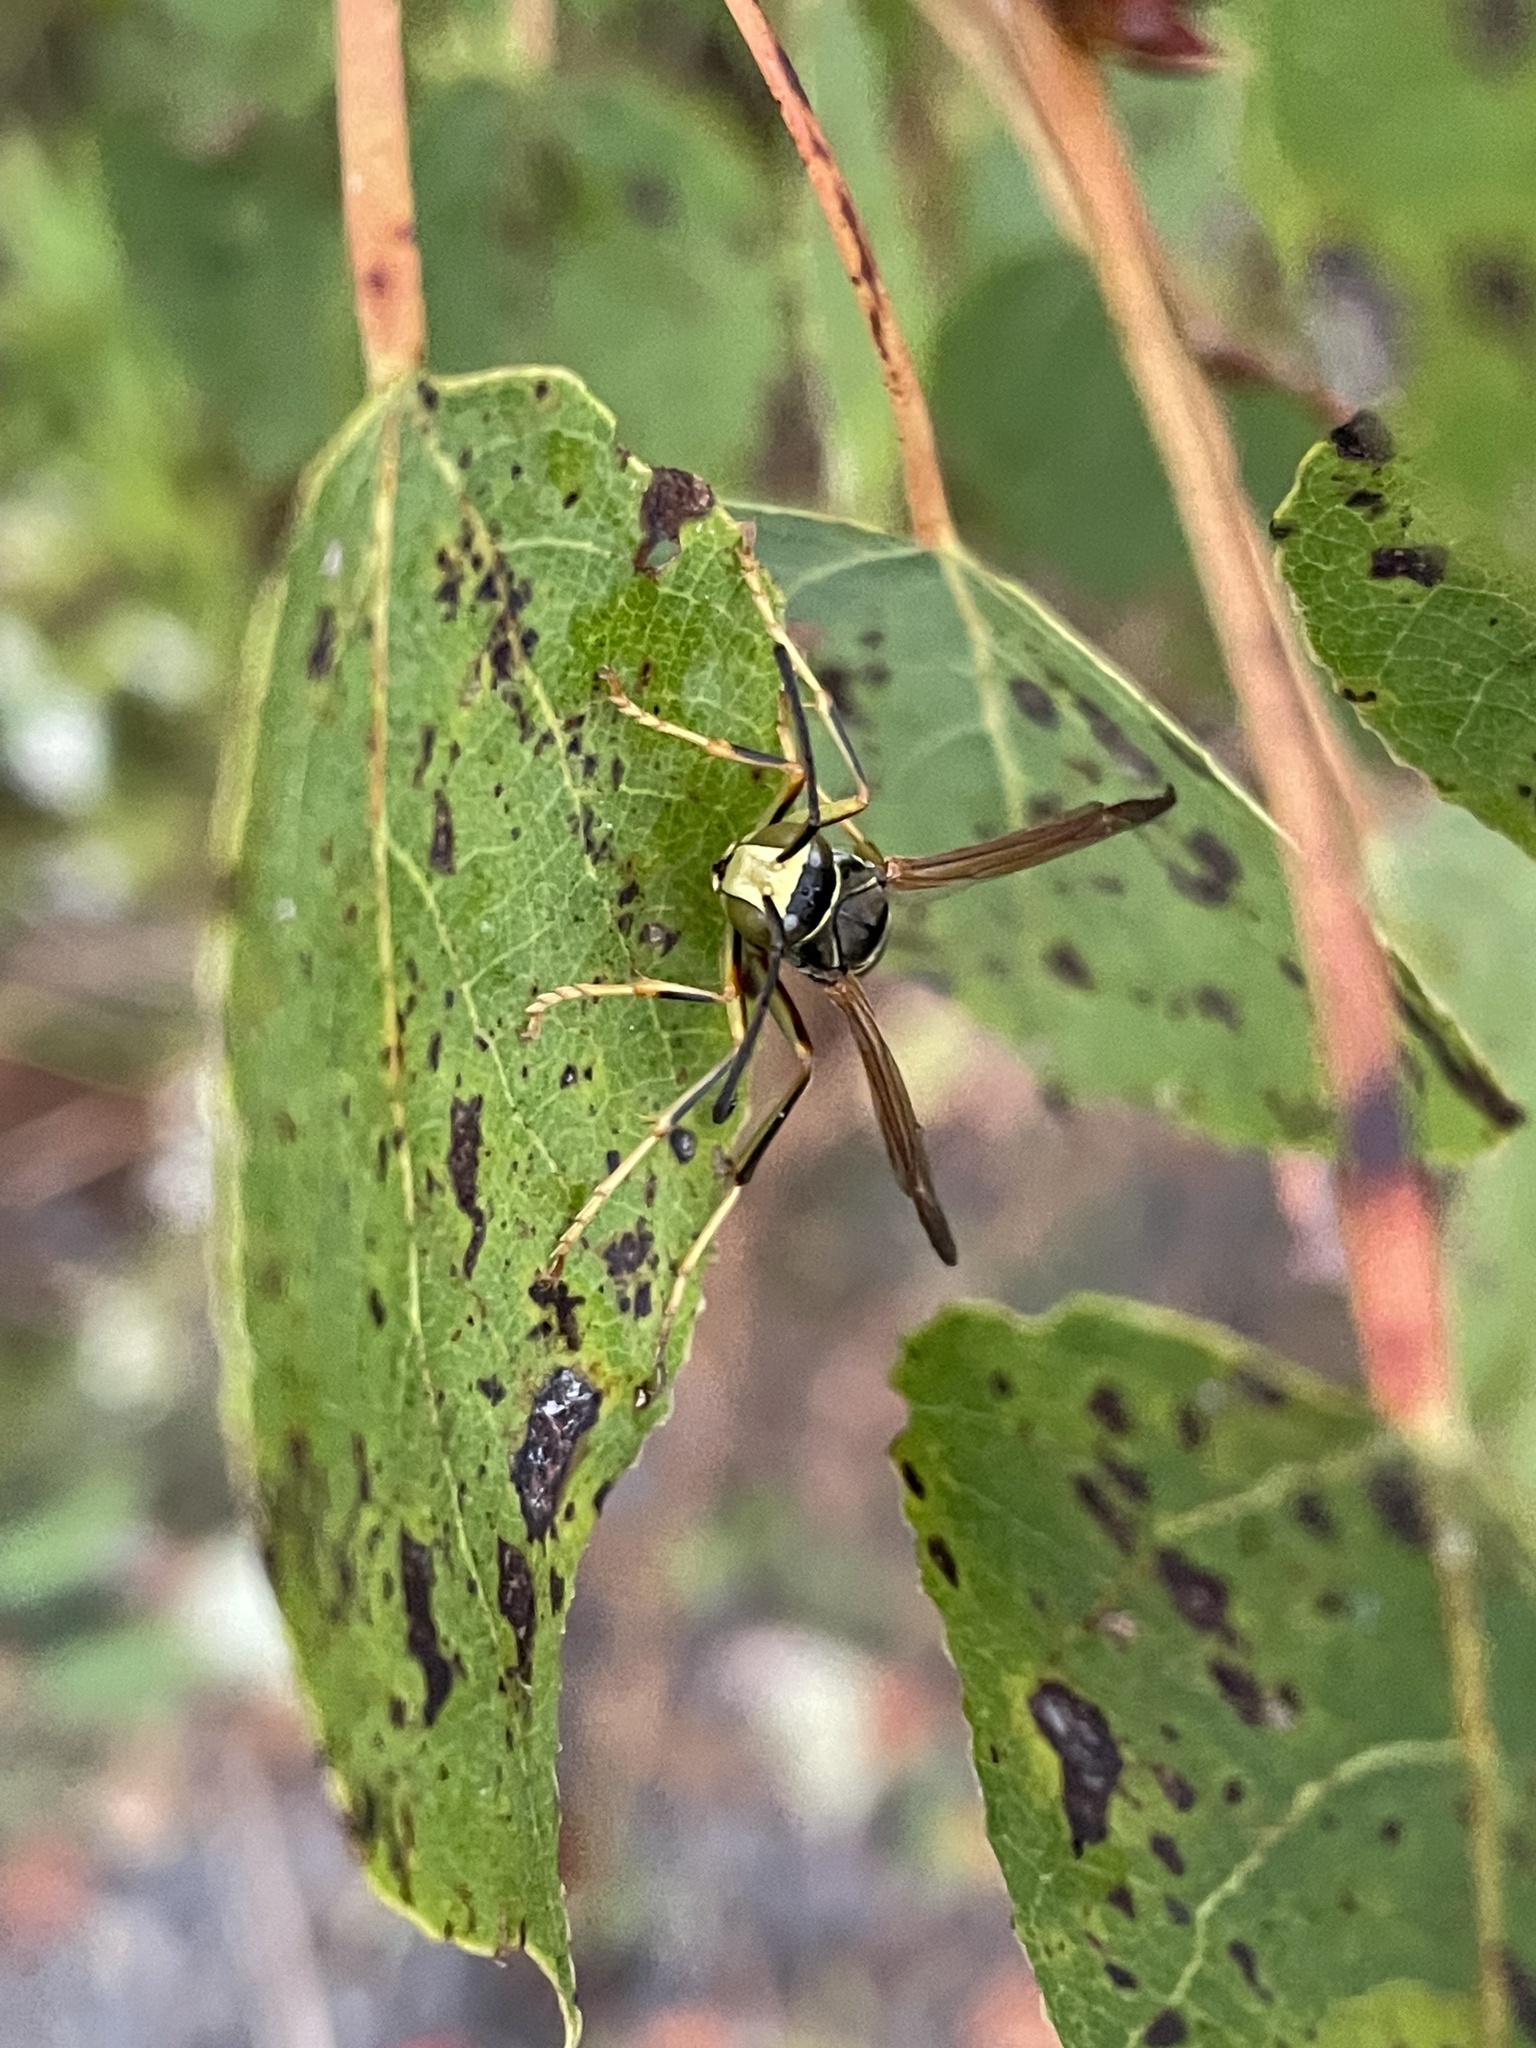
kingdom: Animalia
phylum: Arthropoda
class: Insecta
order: Hymenoptera
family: Eumenidae
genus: Polistes
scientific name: Polistes fuscatus
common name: Dark paper wasp
